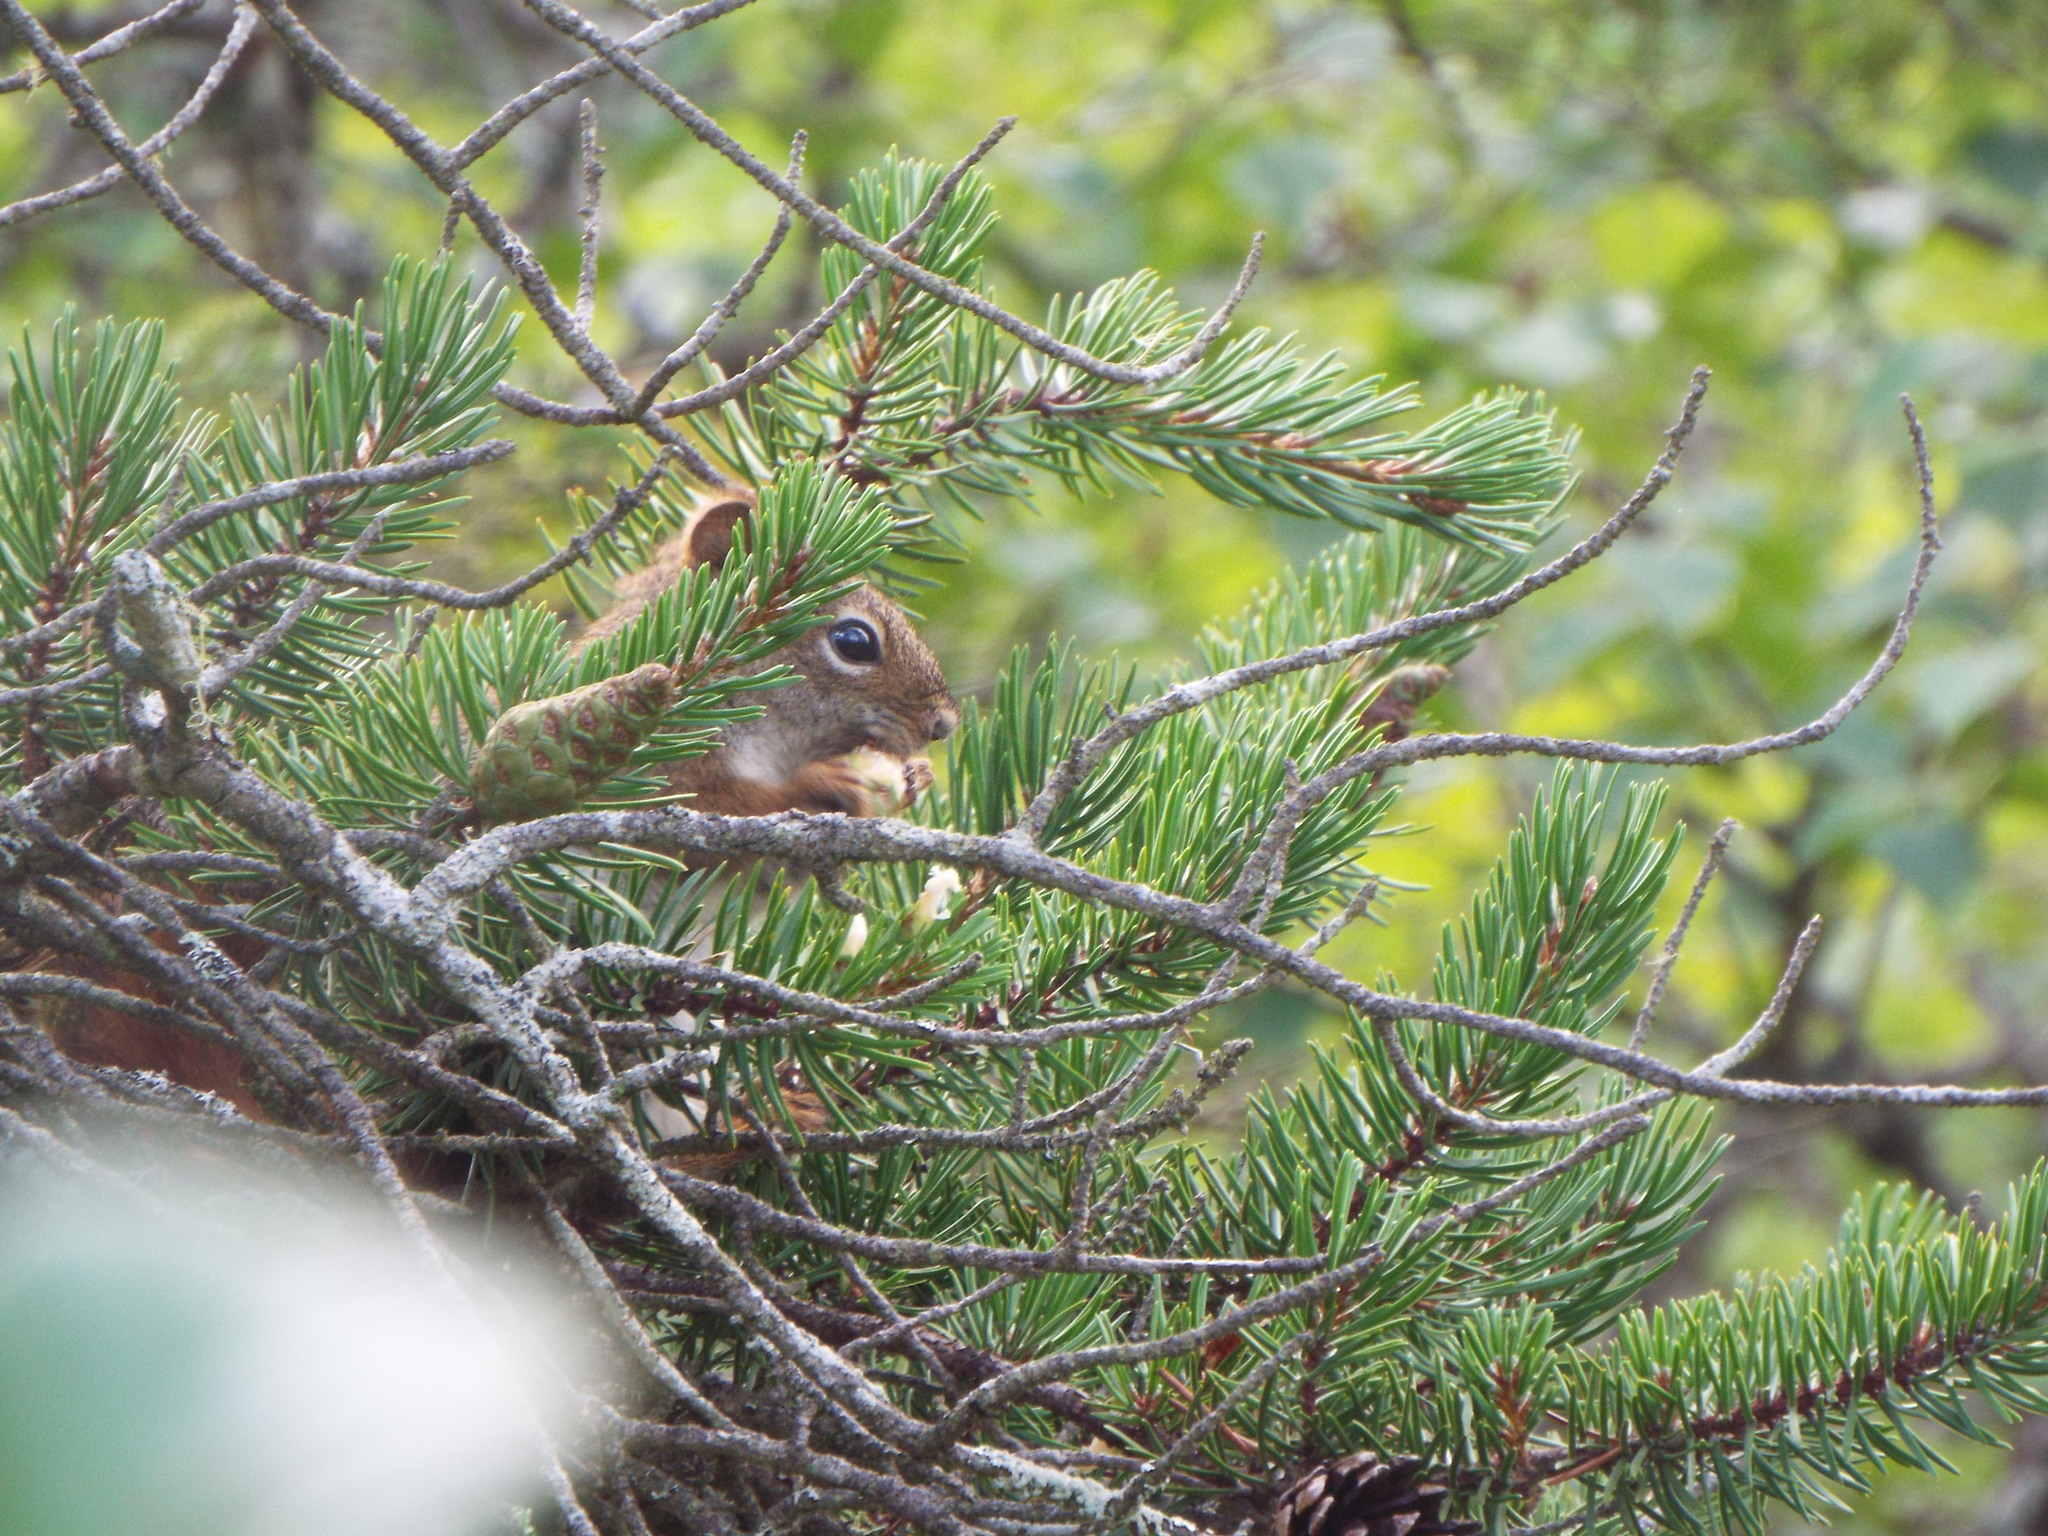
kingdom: Animalia
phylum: Chordata
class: Mammalia
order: Rodentia
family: Sciuridae
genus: Tamiasciurus
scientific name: Tamiasciurus hudsonicus
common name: Red squirrel
